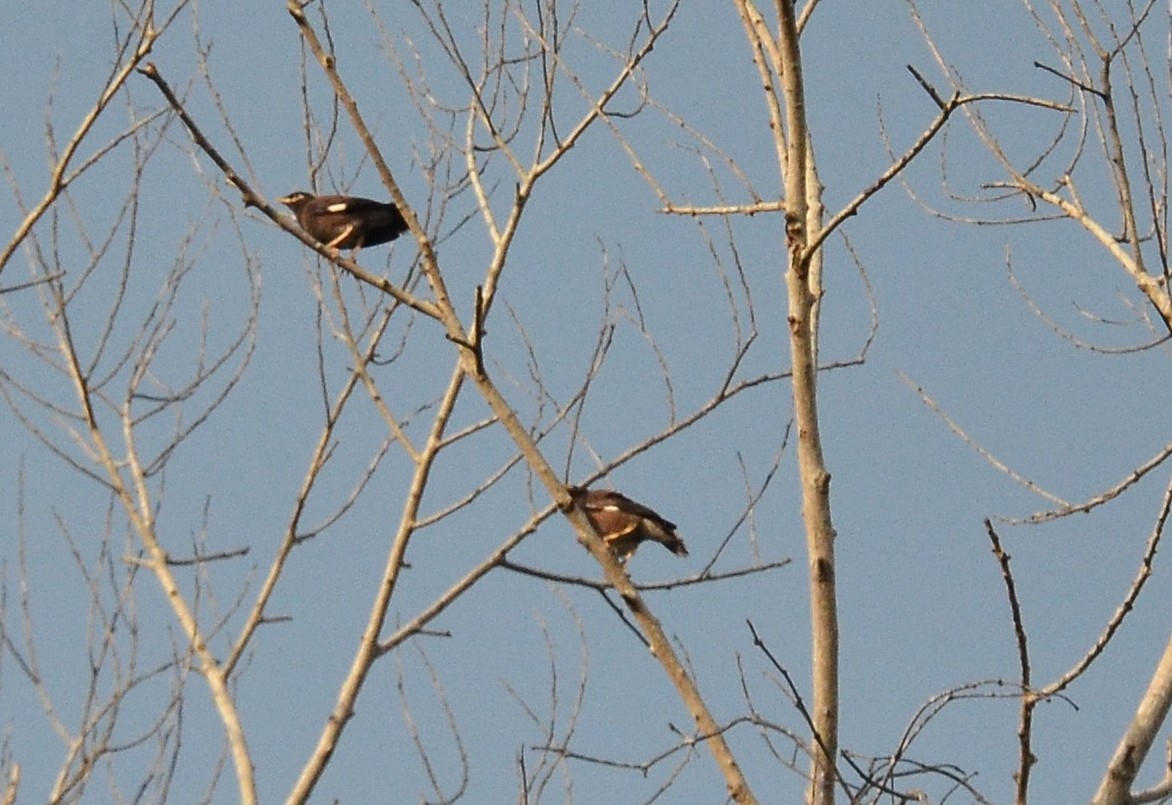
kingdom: Animalia
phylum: Chordata
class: Aves
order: Passeriformes
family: Sturnidae
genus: Acridotheres
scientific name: Acridotheres tristis
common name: Common myna
